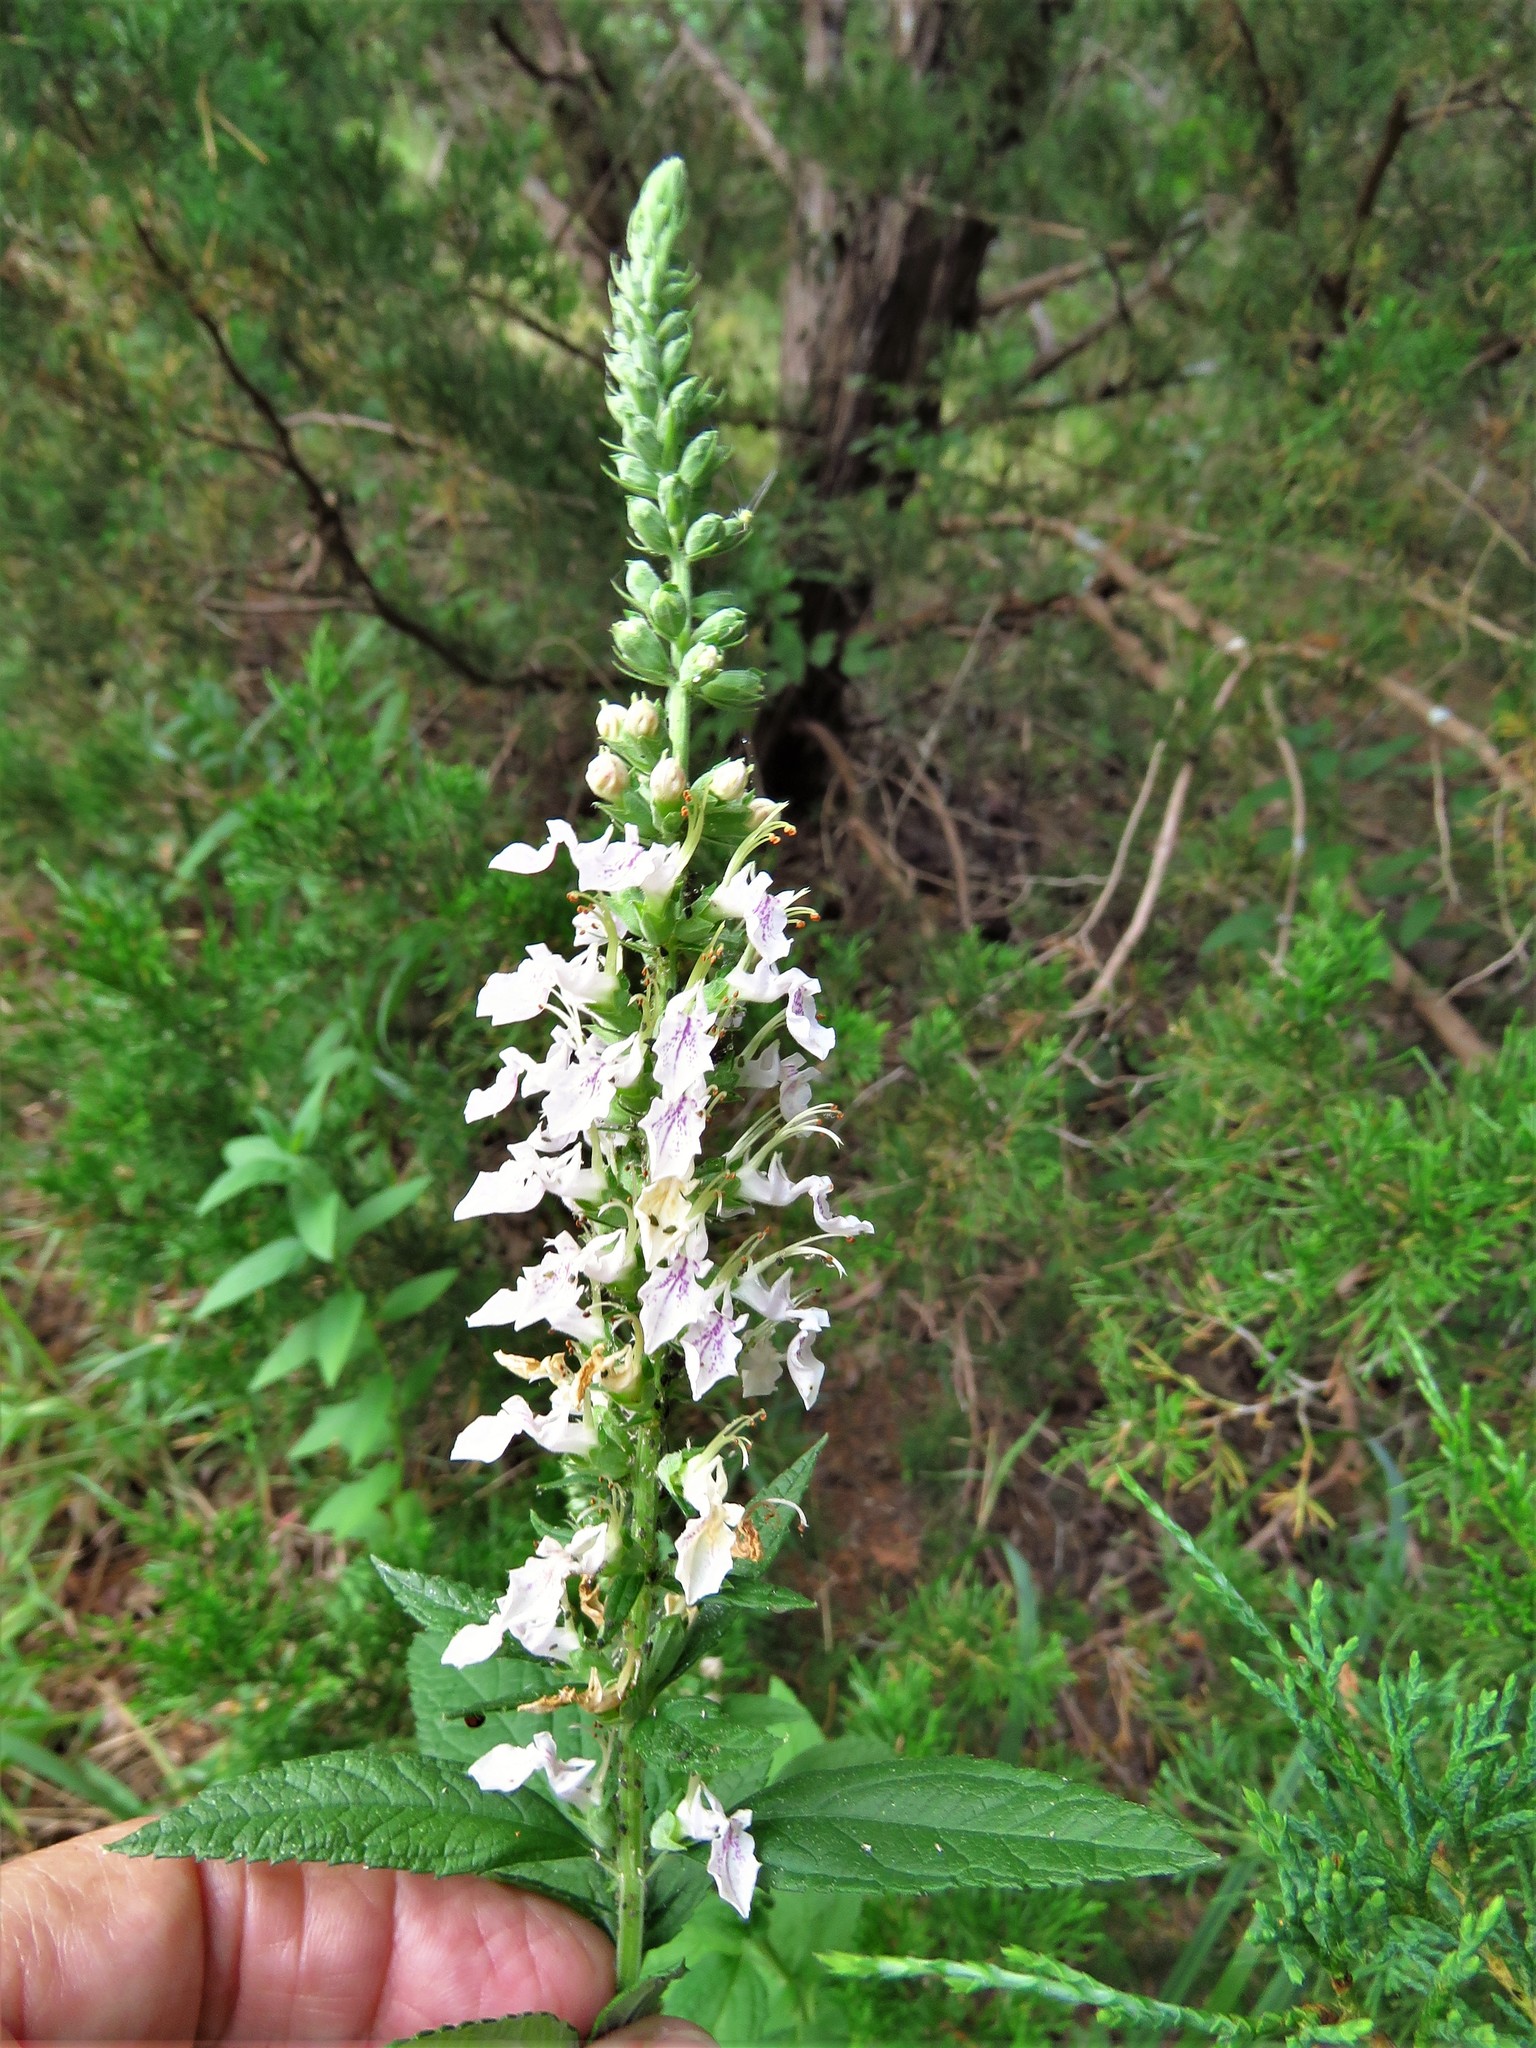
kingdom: Plantae
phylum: Tracheophyta
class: Magnoliopsida
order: Lamiales
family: Lamiaceae
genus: Teucrium
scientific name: Teucrium canadense
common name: American germander
